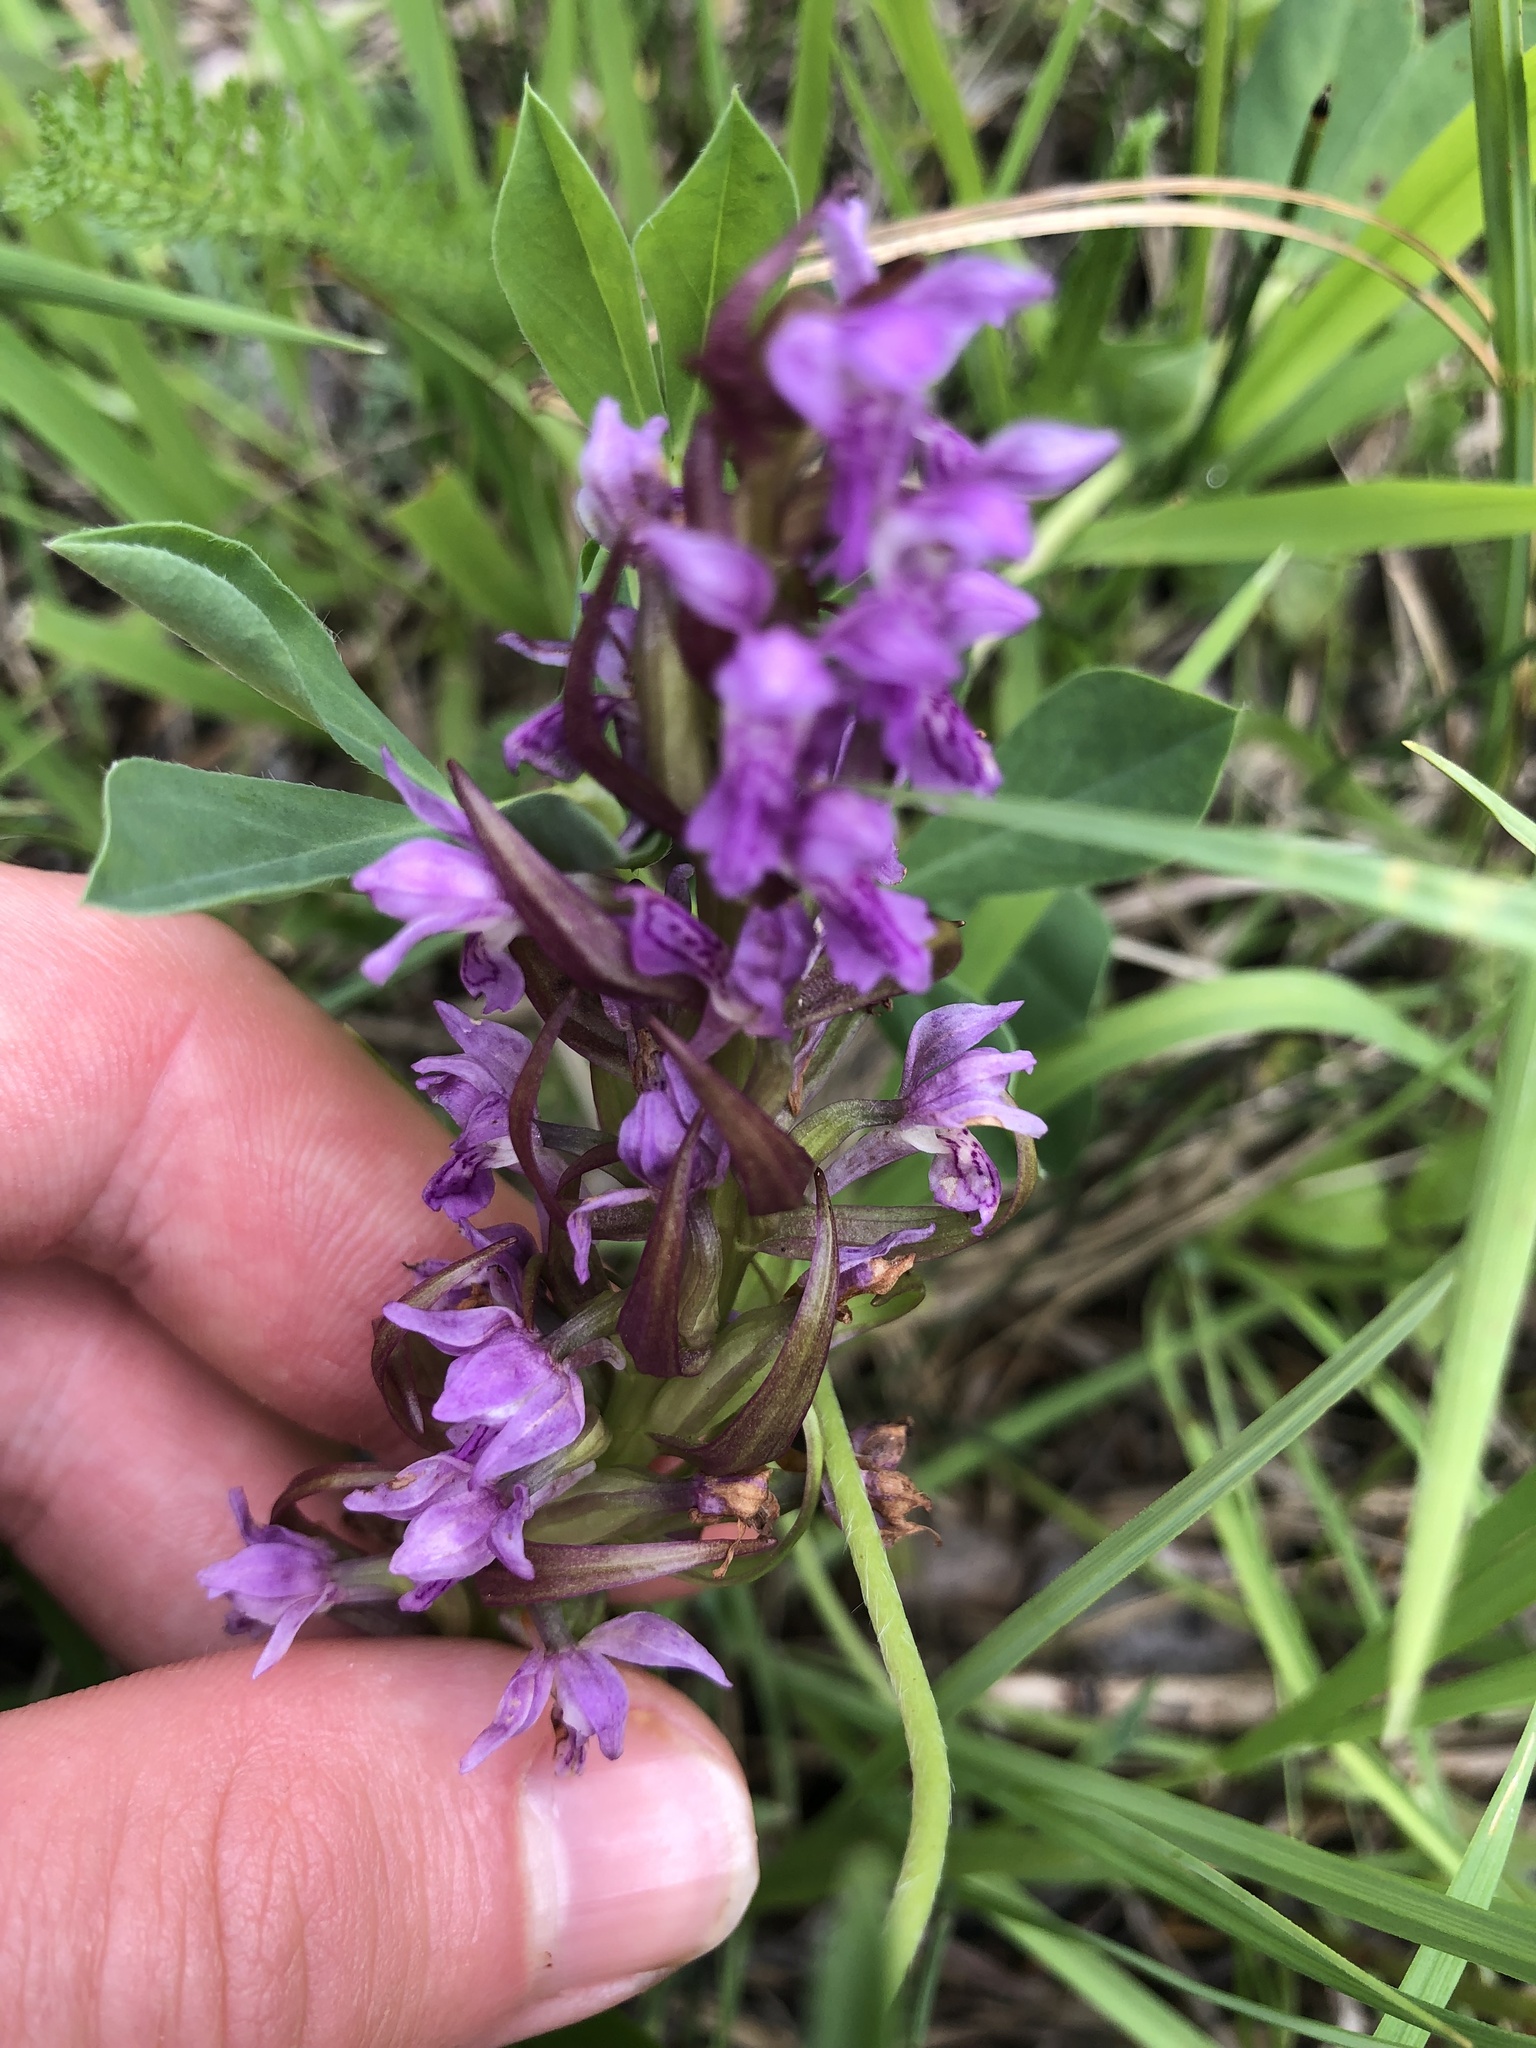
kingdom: Plantae
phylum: Tracheophyta
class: Liliopsida
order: Asparagales
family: Orchidaceae
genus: Dactylorhiza
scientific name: Dactylorhiza incarnata
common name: Early marsh-orchid
